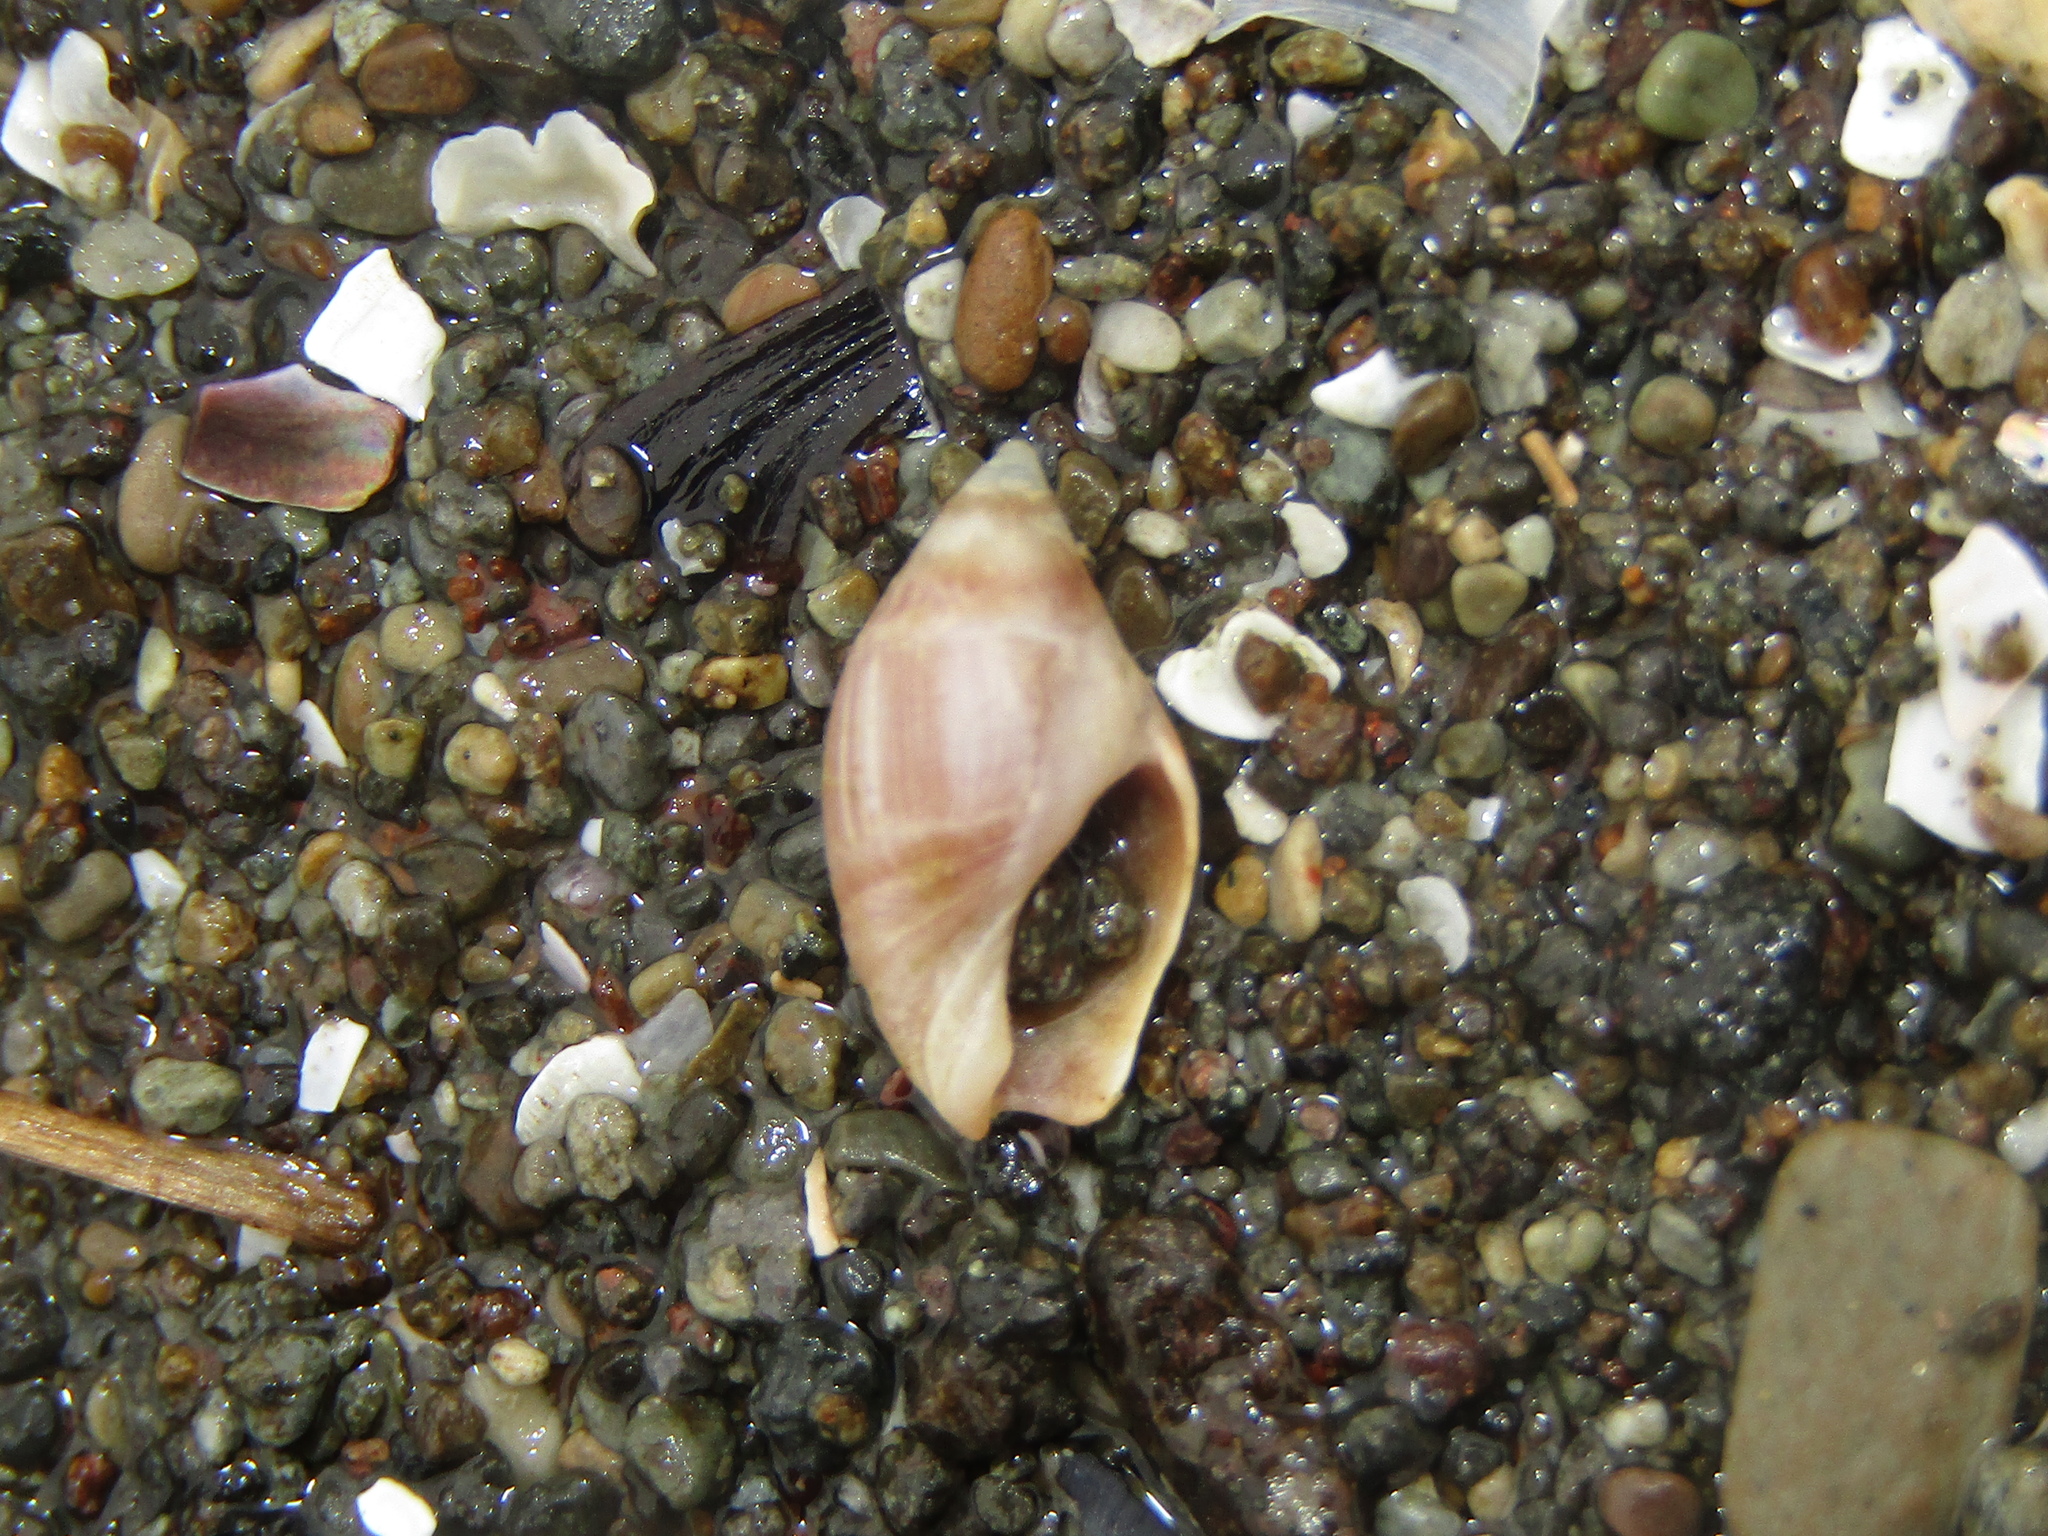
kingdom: Animalia
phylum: Mollusca
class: Gastropoda
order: Neogastropoda
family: Ancillariidae
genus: Amalda
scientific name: Amalda depressa
